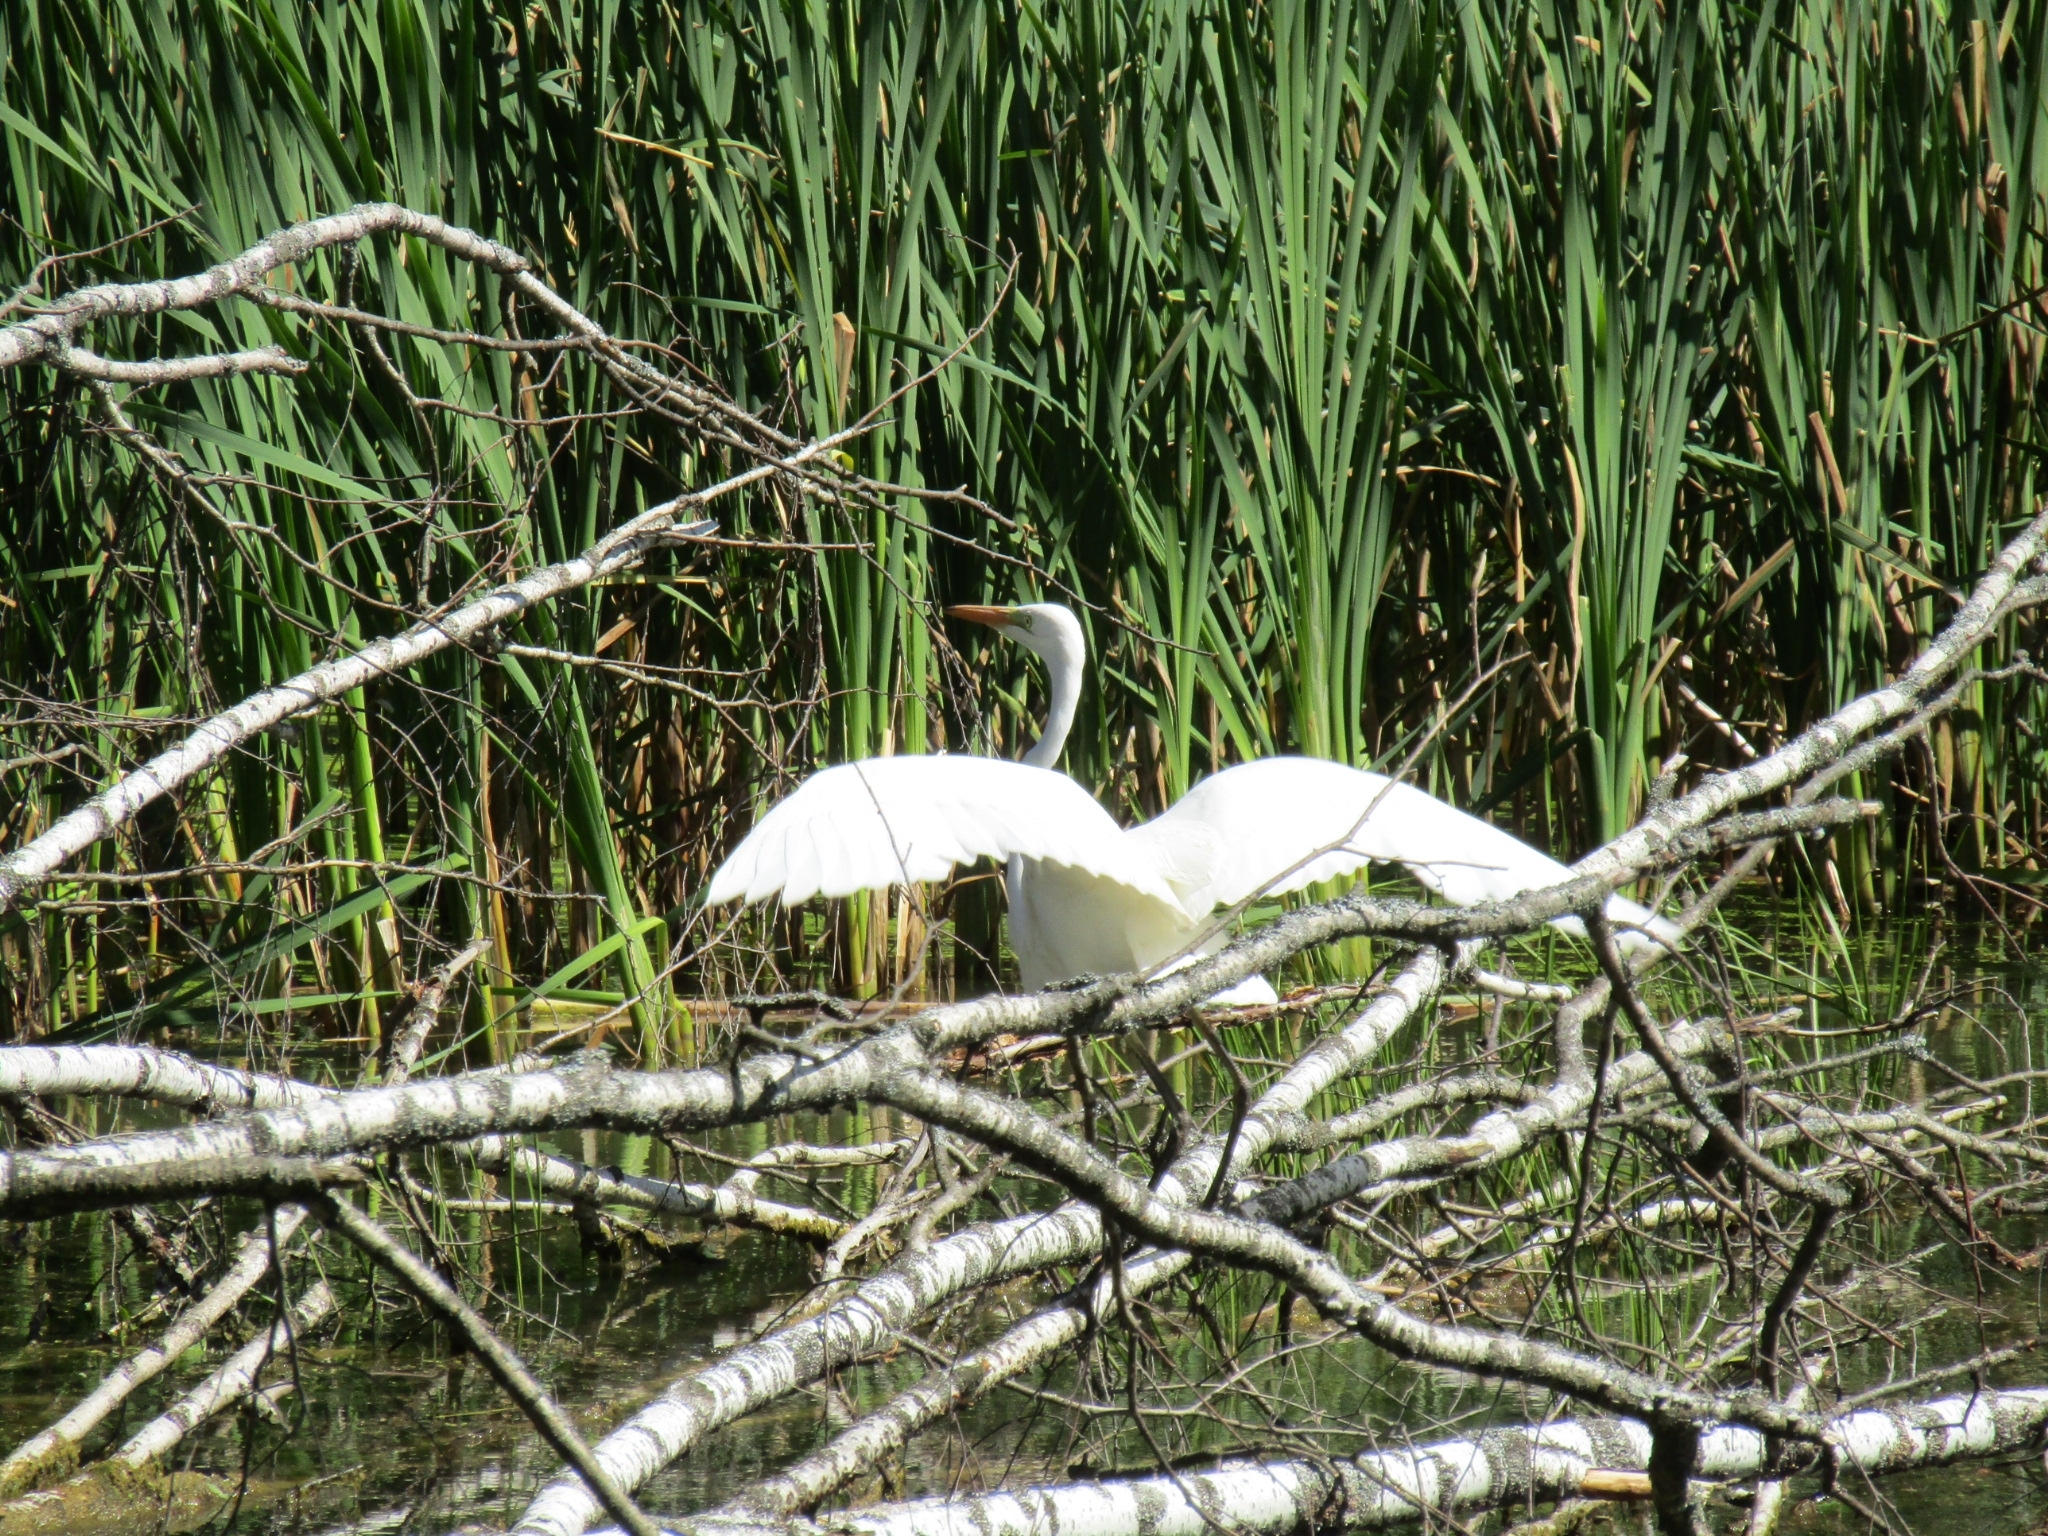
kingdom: Animalia
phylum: Chordata
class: Aves
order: Pelecaniformes
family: Ardeidae
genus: Ardea
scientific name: Ardea alba
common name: Great egret
